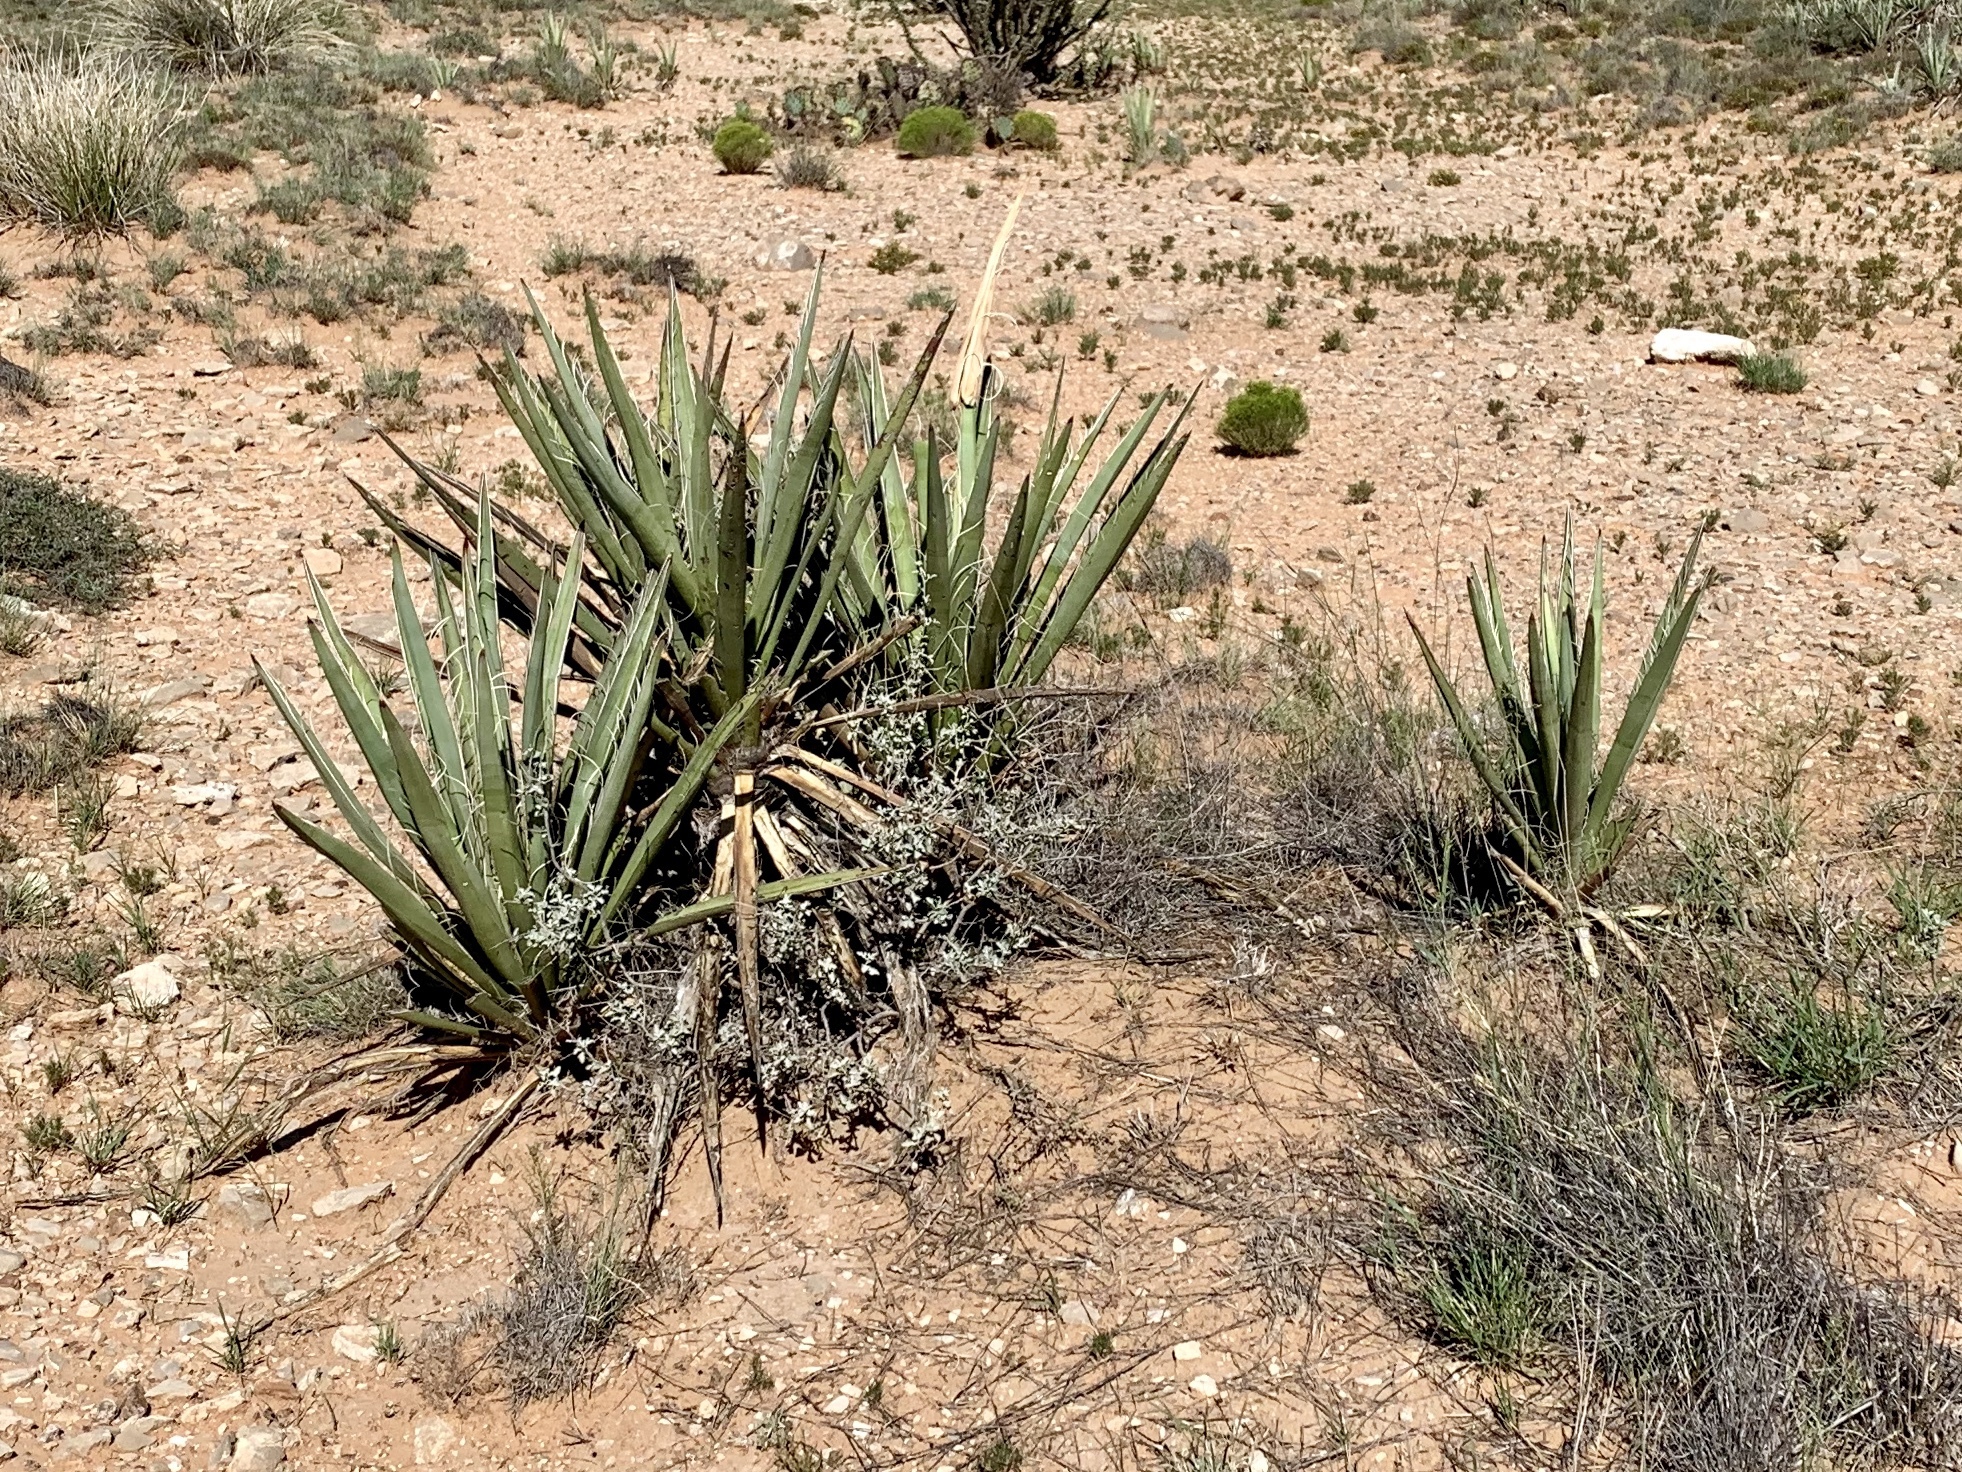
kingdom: Plantae
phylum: Tracheophyta
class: Liliopsida
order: Asparagales
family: Asparagaceae
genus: Yucca
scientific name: Yucca baccata
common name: Banana yucca
